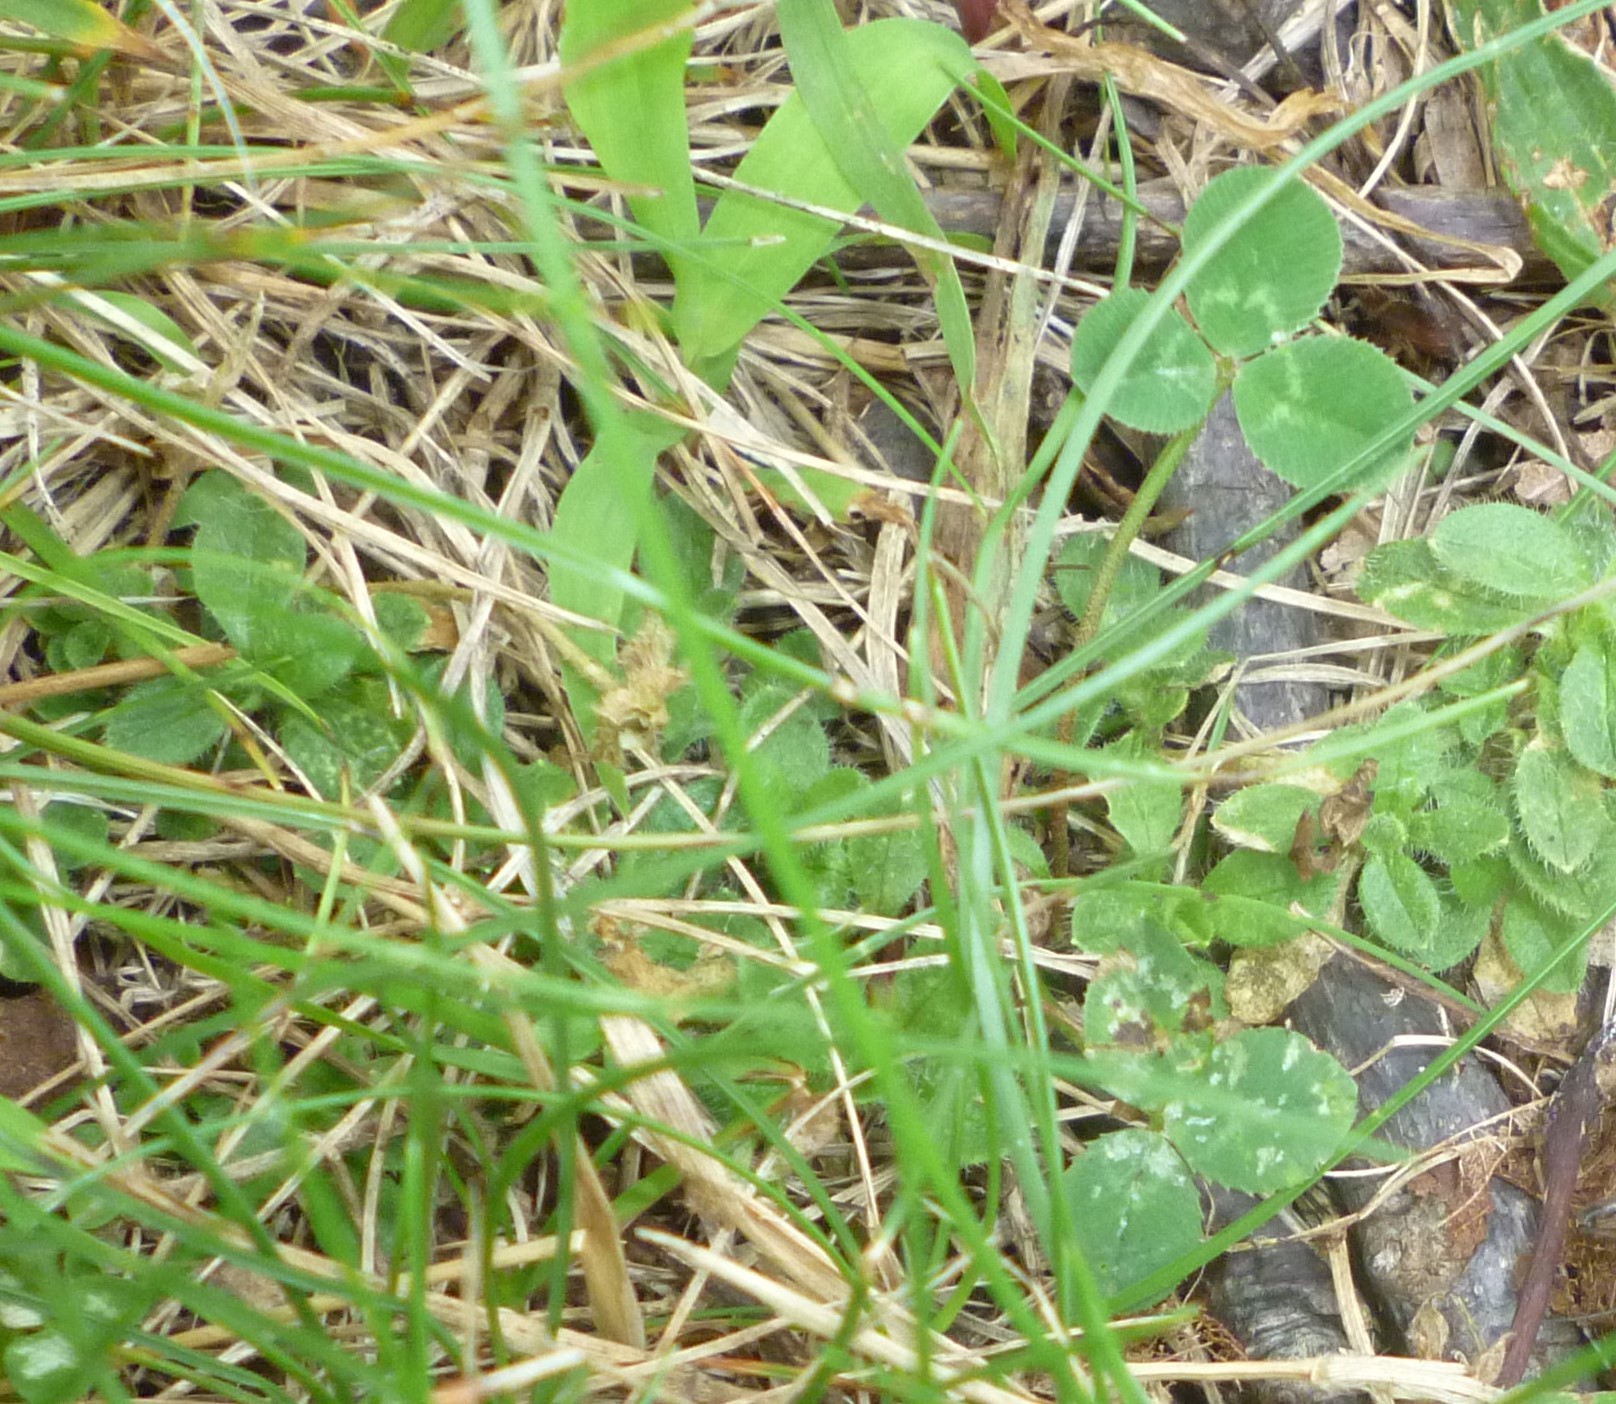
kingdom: Plantae
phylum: Tracheophyta
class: Magnoliopsida
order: Fabales
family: Fabaceae
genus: Trifolium
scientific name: Trifolium repens
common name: White clover
